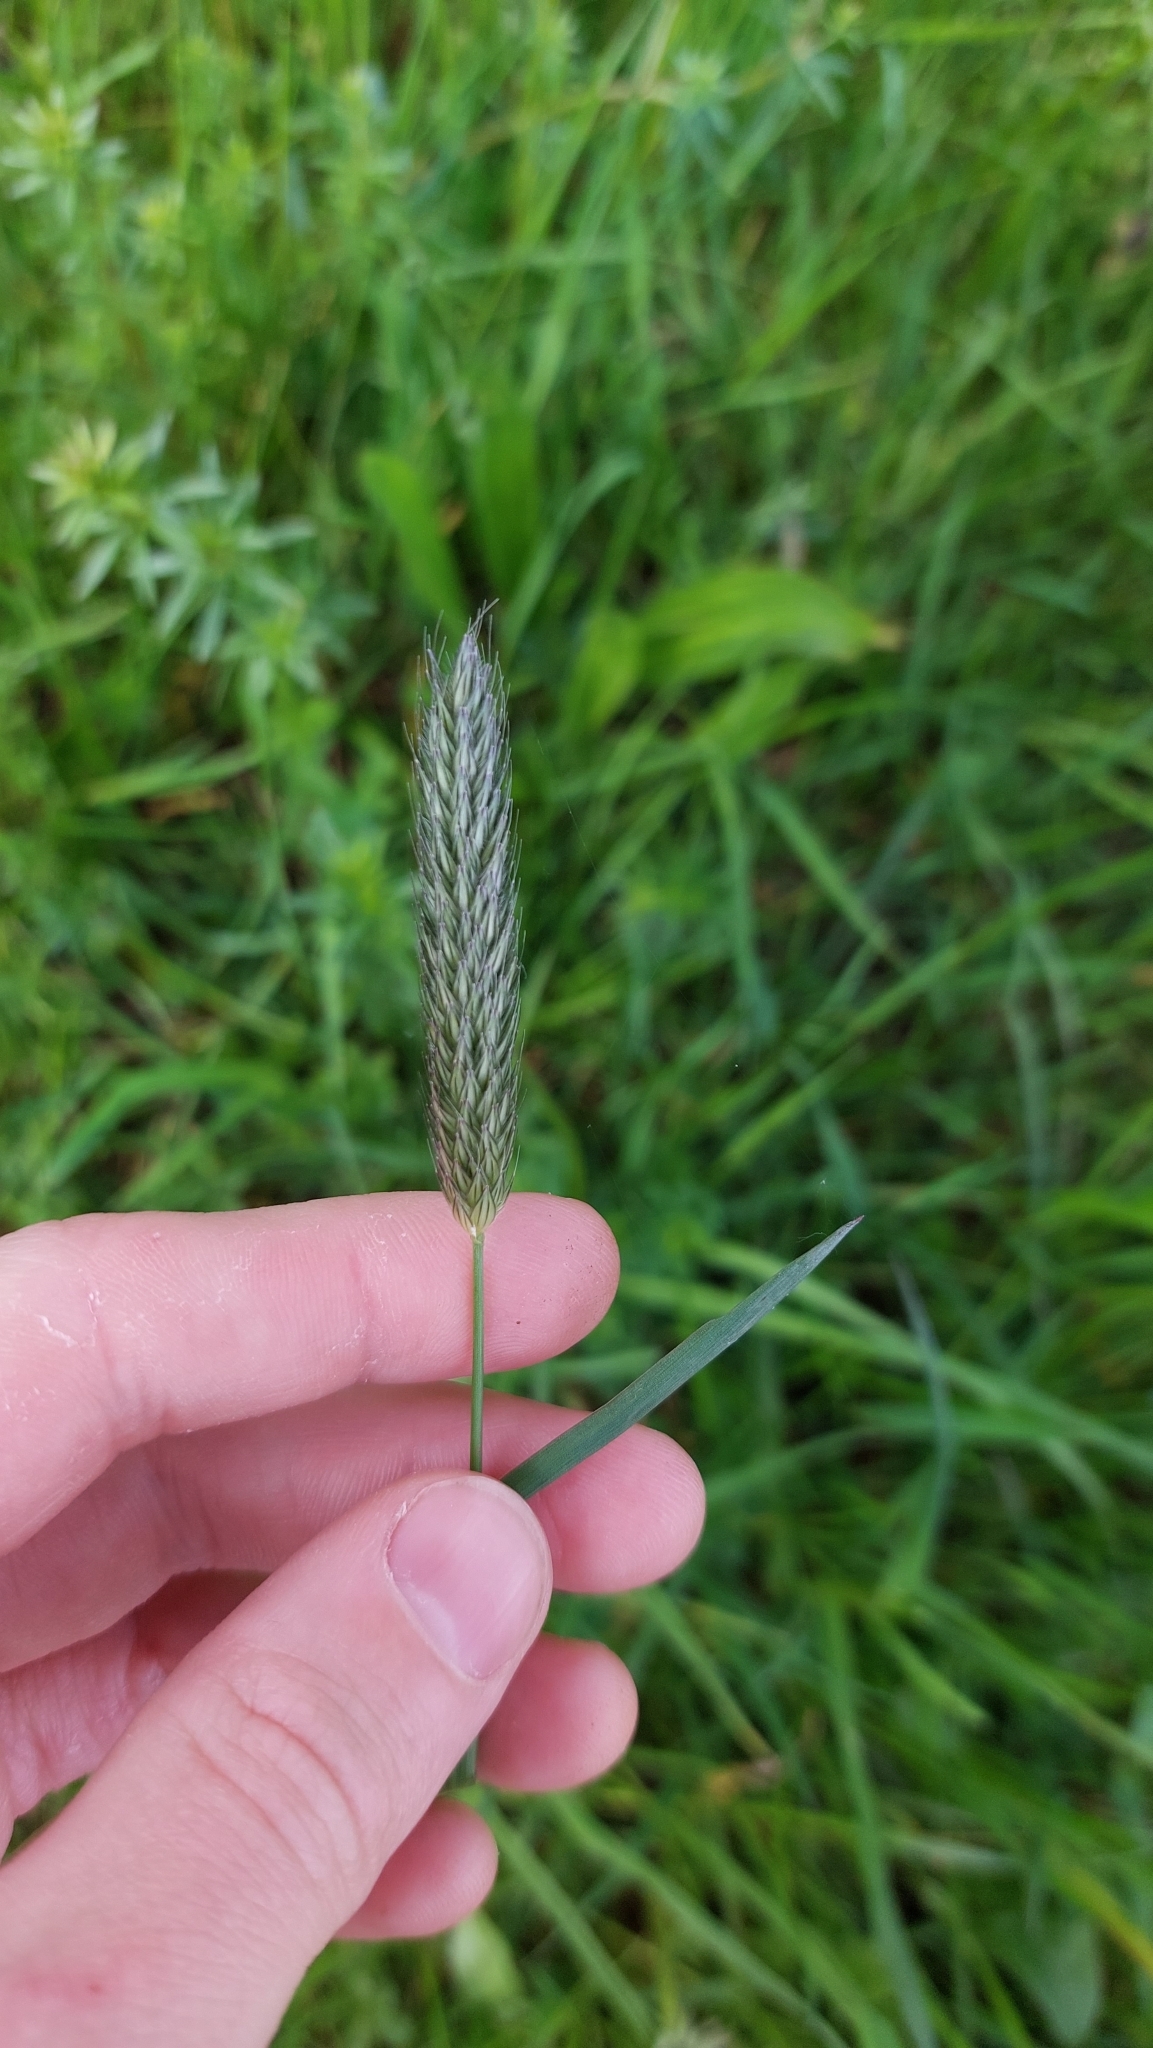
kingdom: Plantae
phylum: Tracheophyta
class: Liliopsida
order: Poales
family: Poaceae
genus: Alopecurus
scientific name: Alopecurus pratensis
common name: Meadow foxtail
